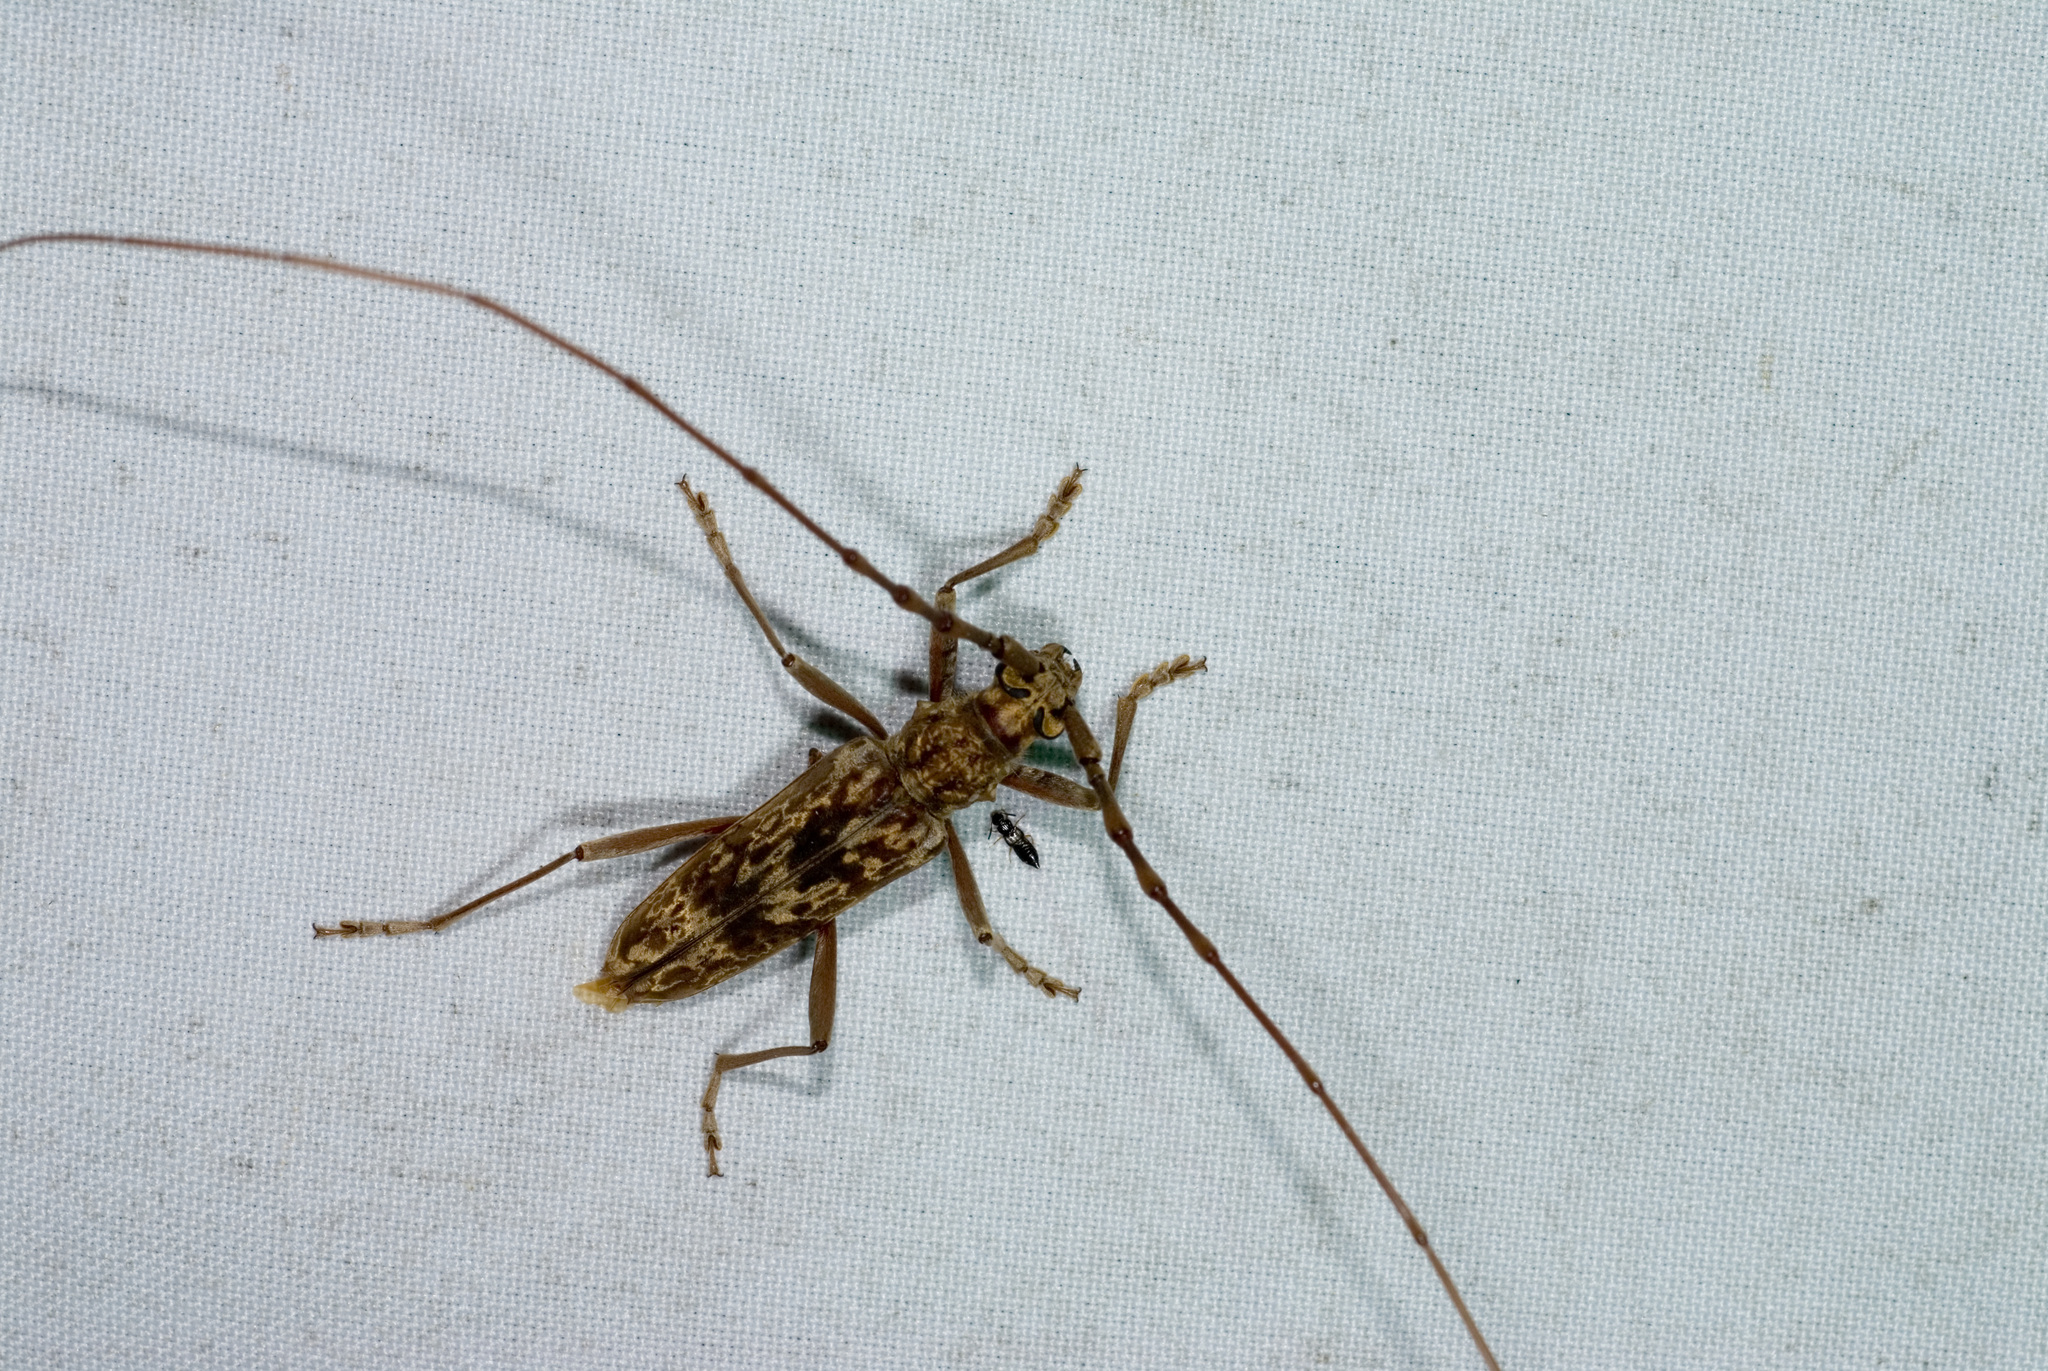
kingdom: Animalia
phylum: Arthropoda
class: Insecta
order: Coleoptera
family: Cerambycidae
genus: Pseudaeolethes
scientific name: Pseudaeolethes chrysothrix
